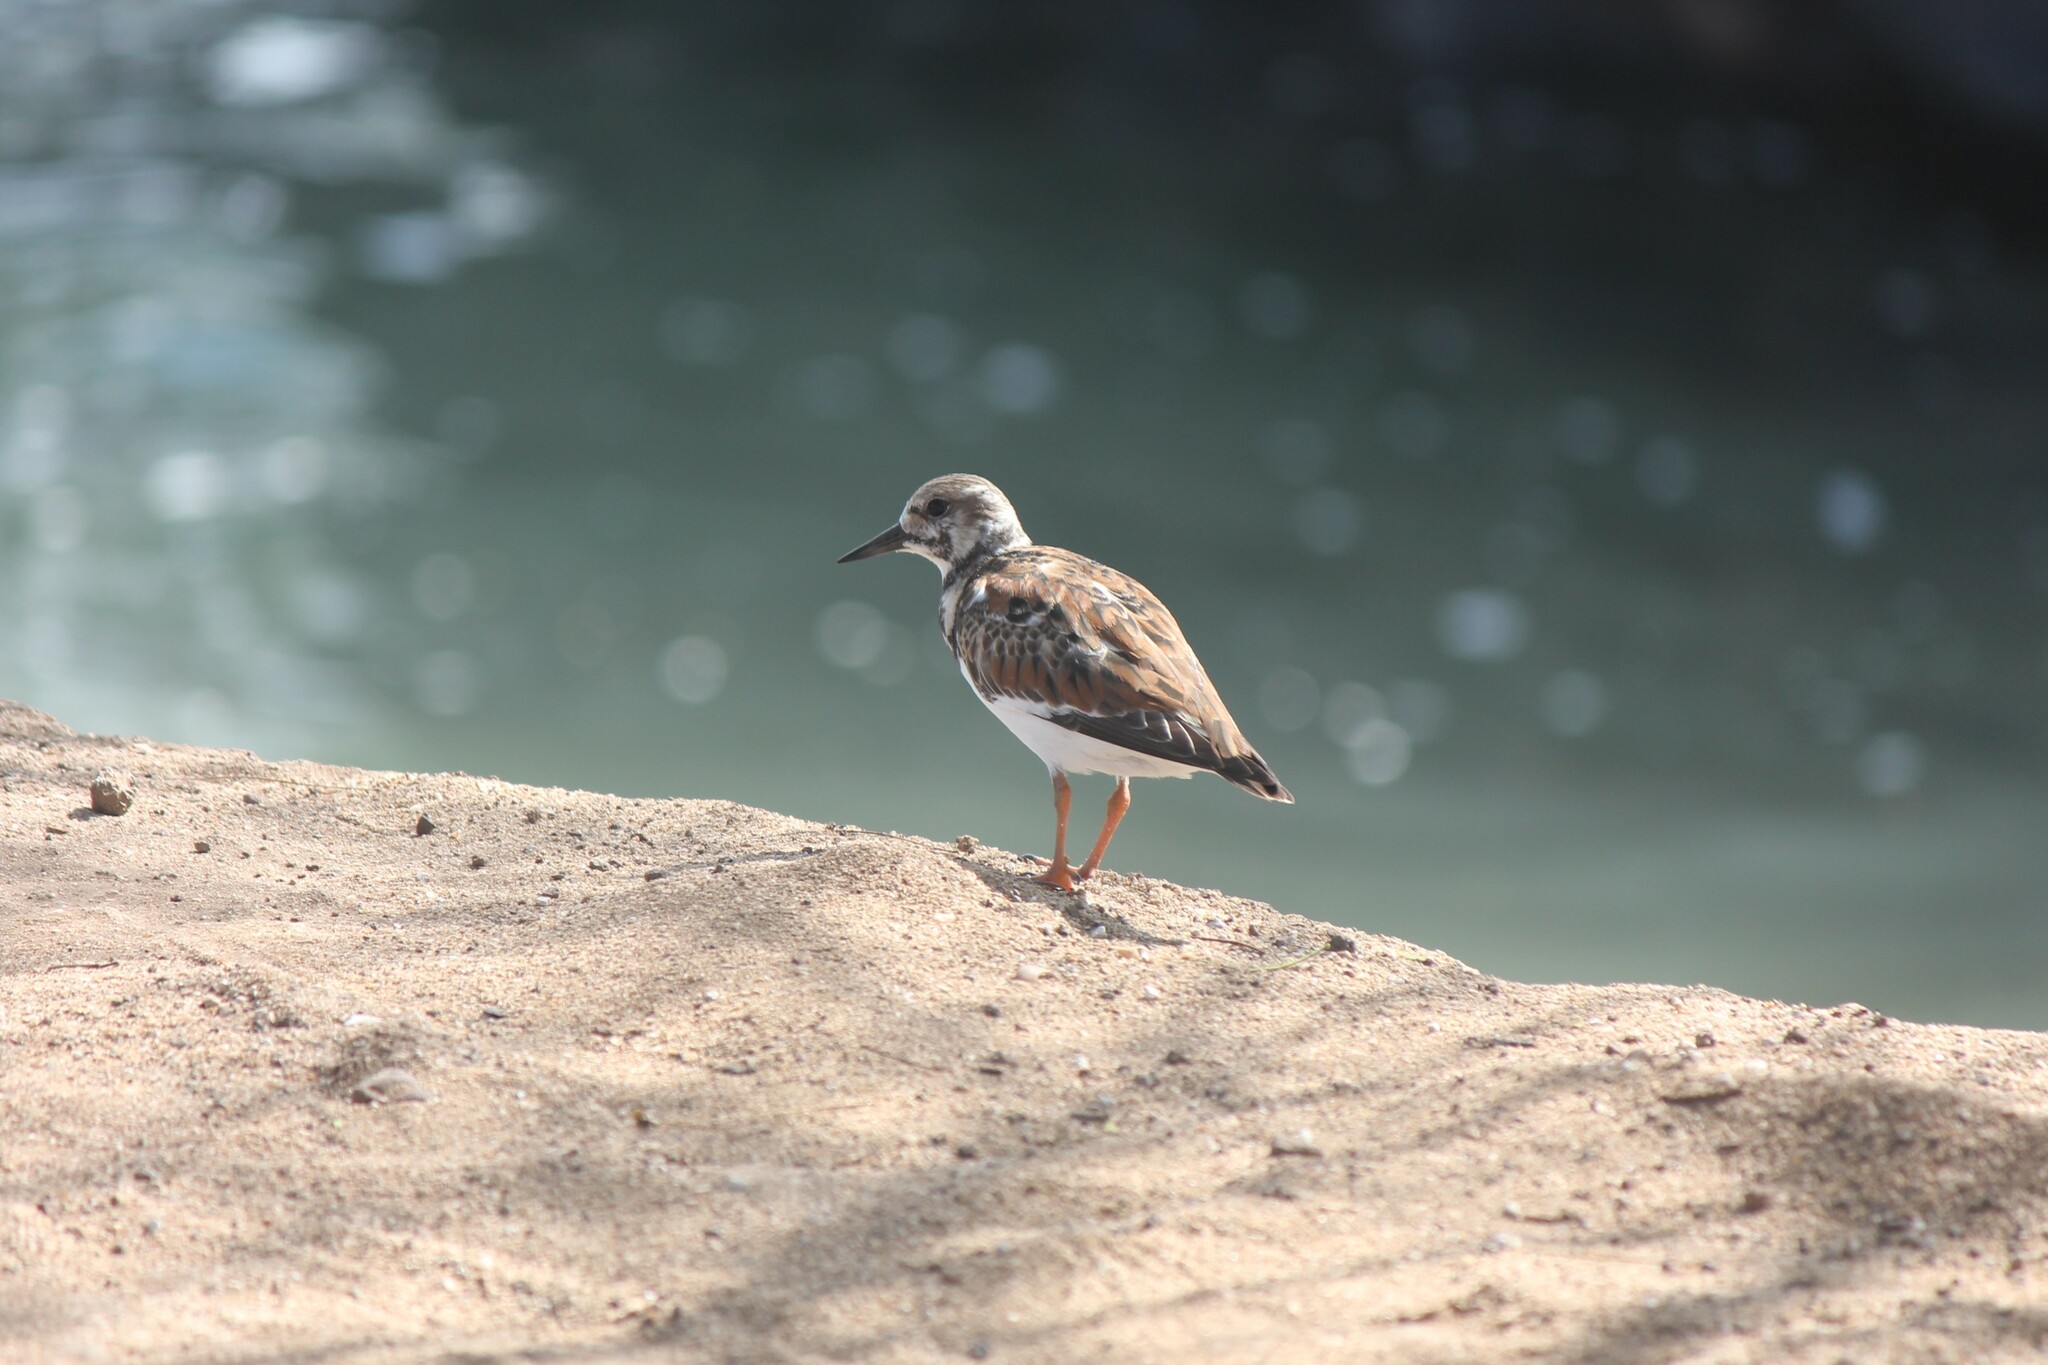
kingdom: Animalia
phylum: Chordata
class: Aves
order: Charadriiformes
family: Scolopacidae
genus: Arenaria
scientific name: Arenaria interpres
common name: Ruddy turnstone
